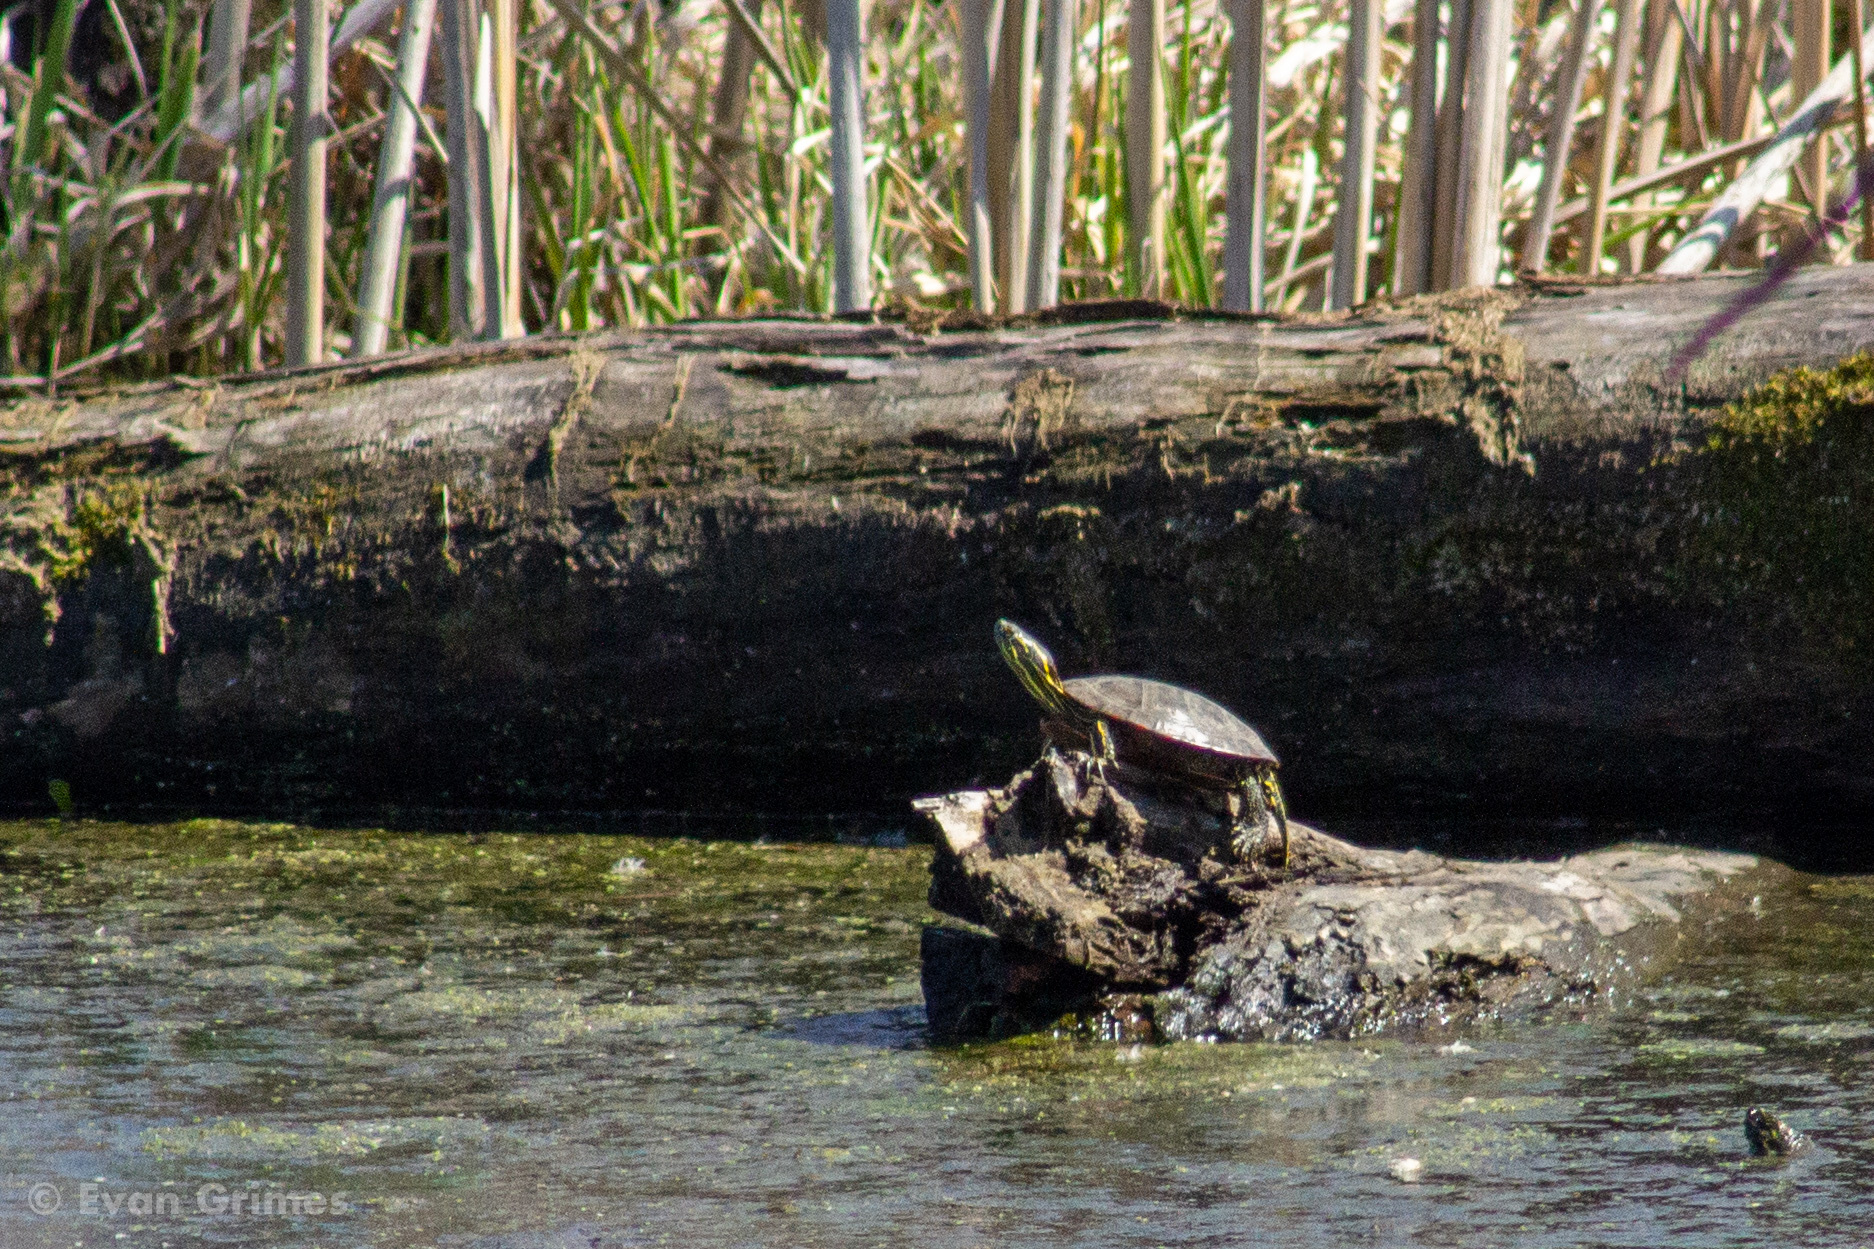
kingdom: Animalia
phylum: Chordata
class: Testudines
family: Emydidae
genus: Chrysemys
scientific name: Chrysemys picta
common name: Painted turtle
